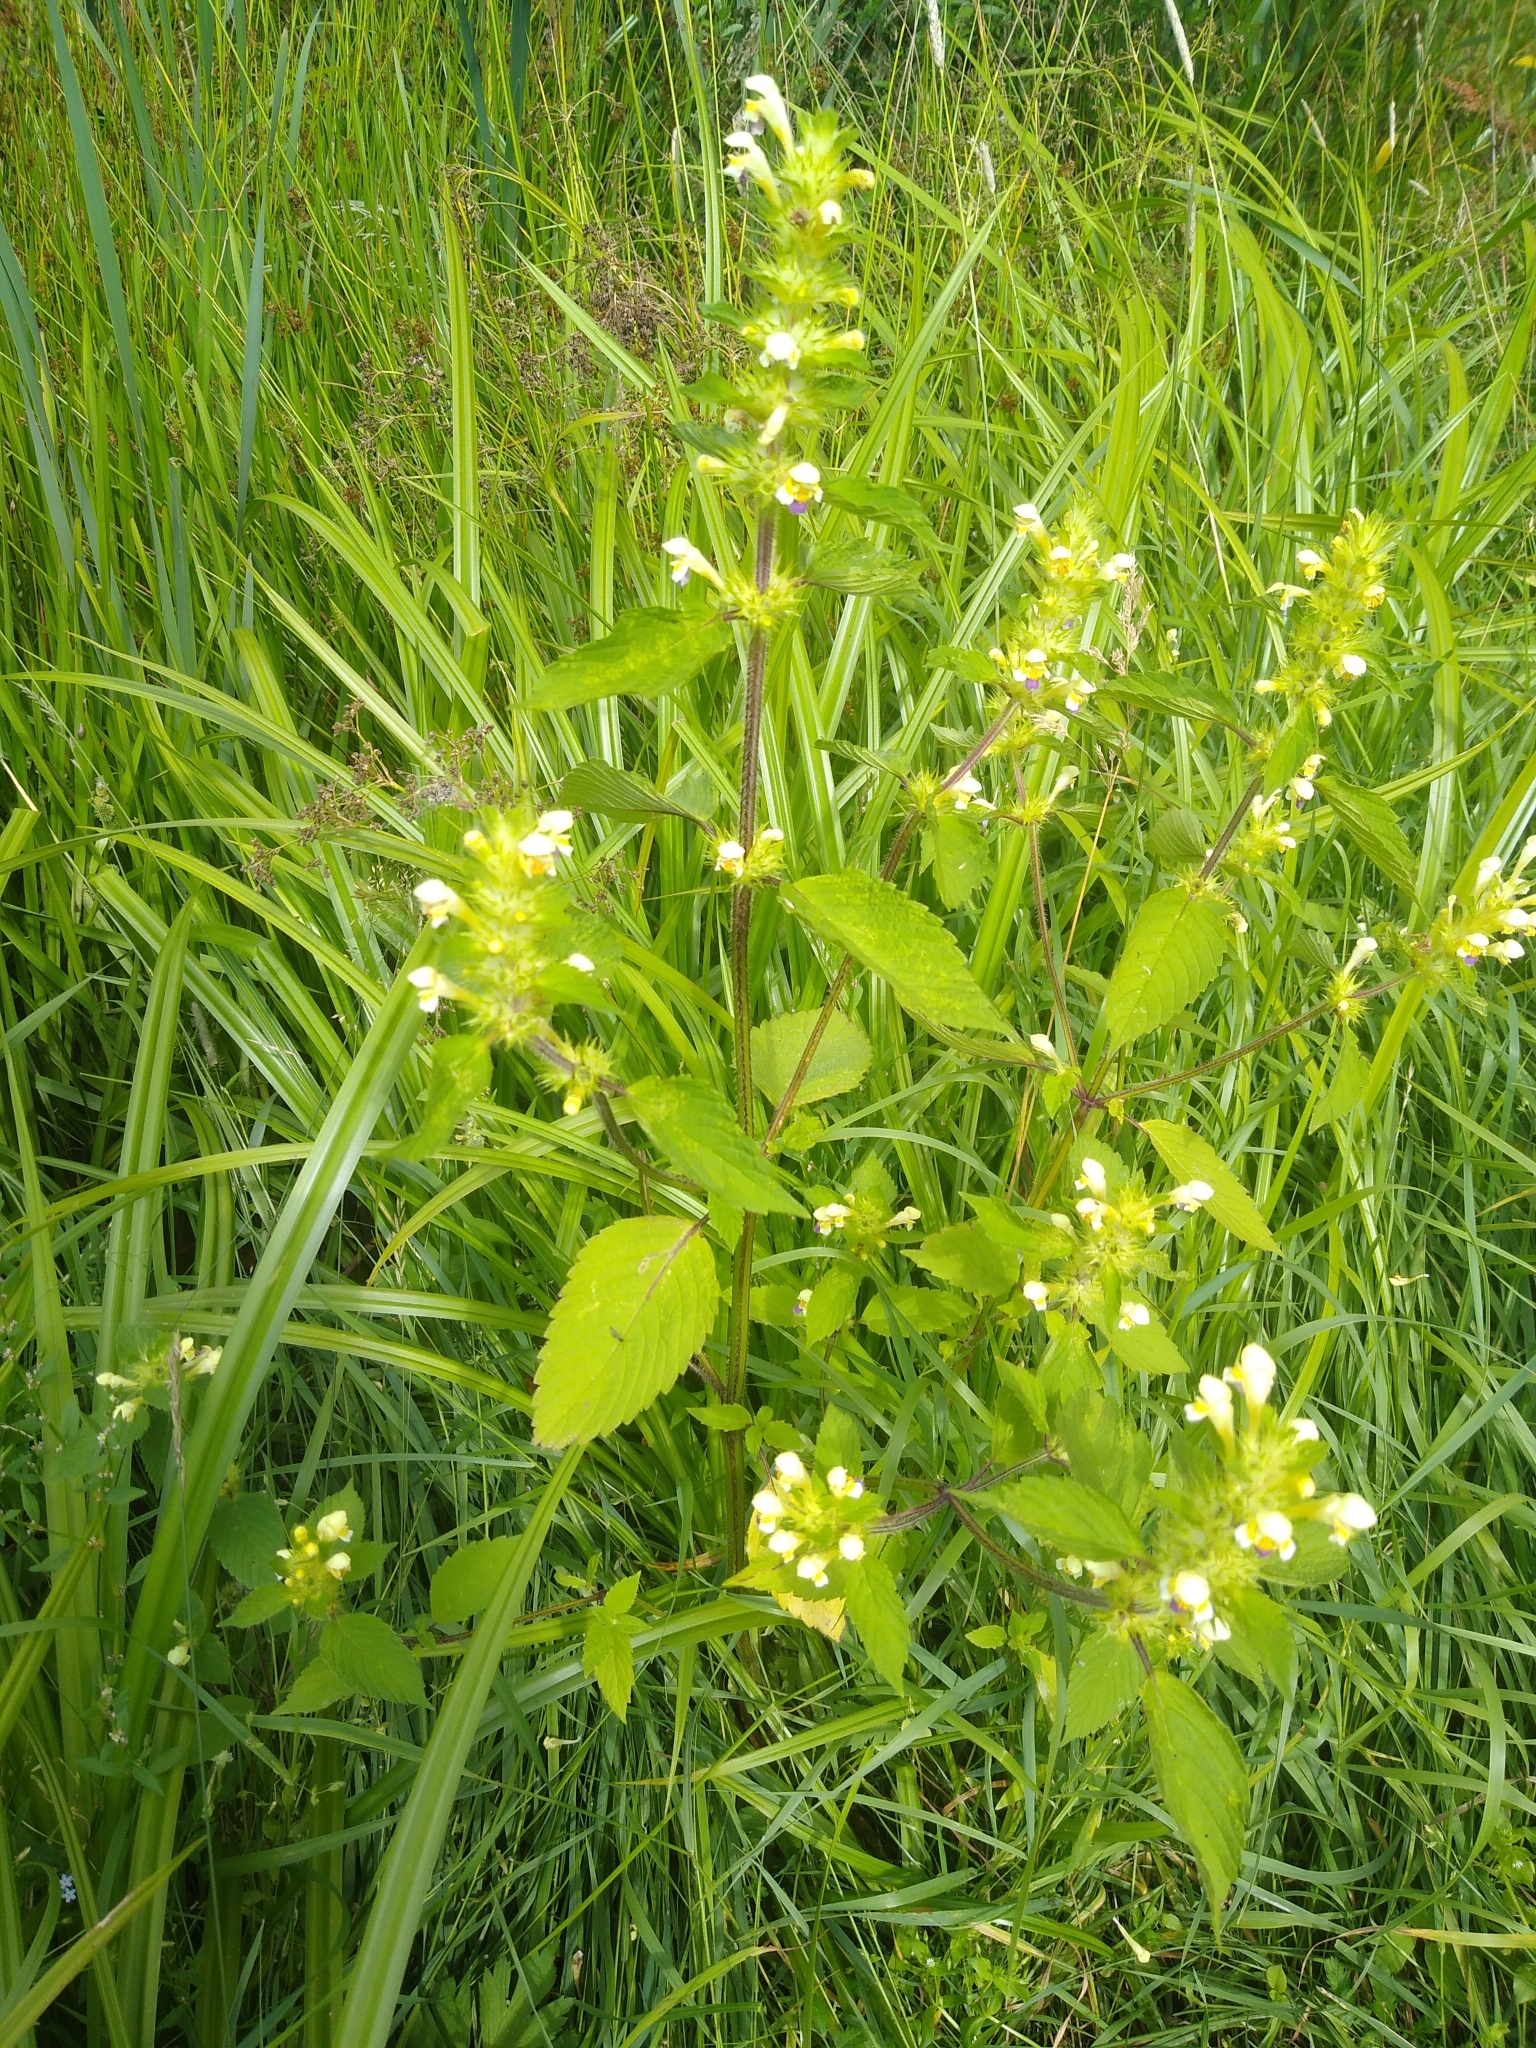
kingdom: Plantae
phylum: Tracheophyta
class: Magnoliopsida
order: Lamiales
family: Lamiaceae
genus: Galeopsis
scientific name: Galeopsis speciosa
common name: Large-flowered hemp-nettle
